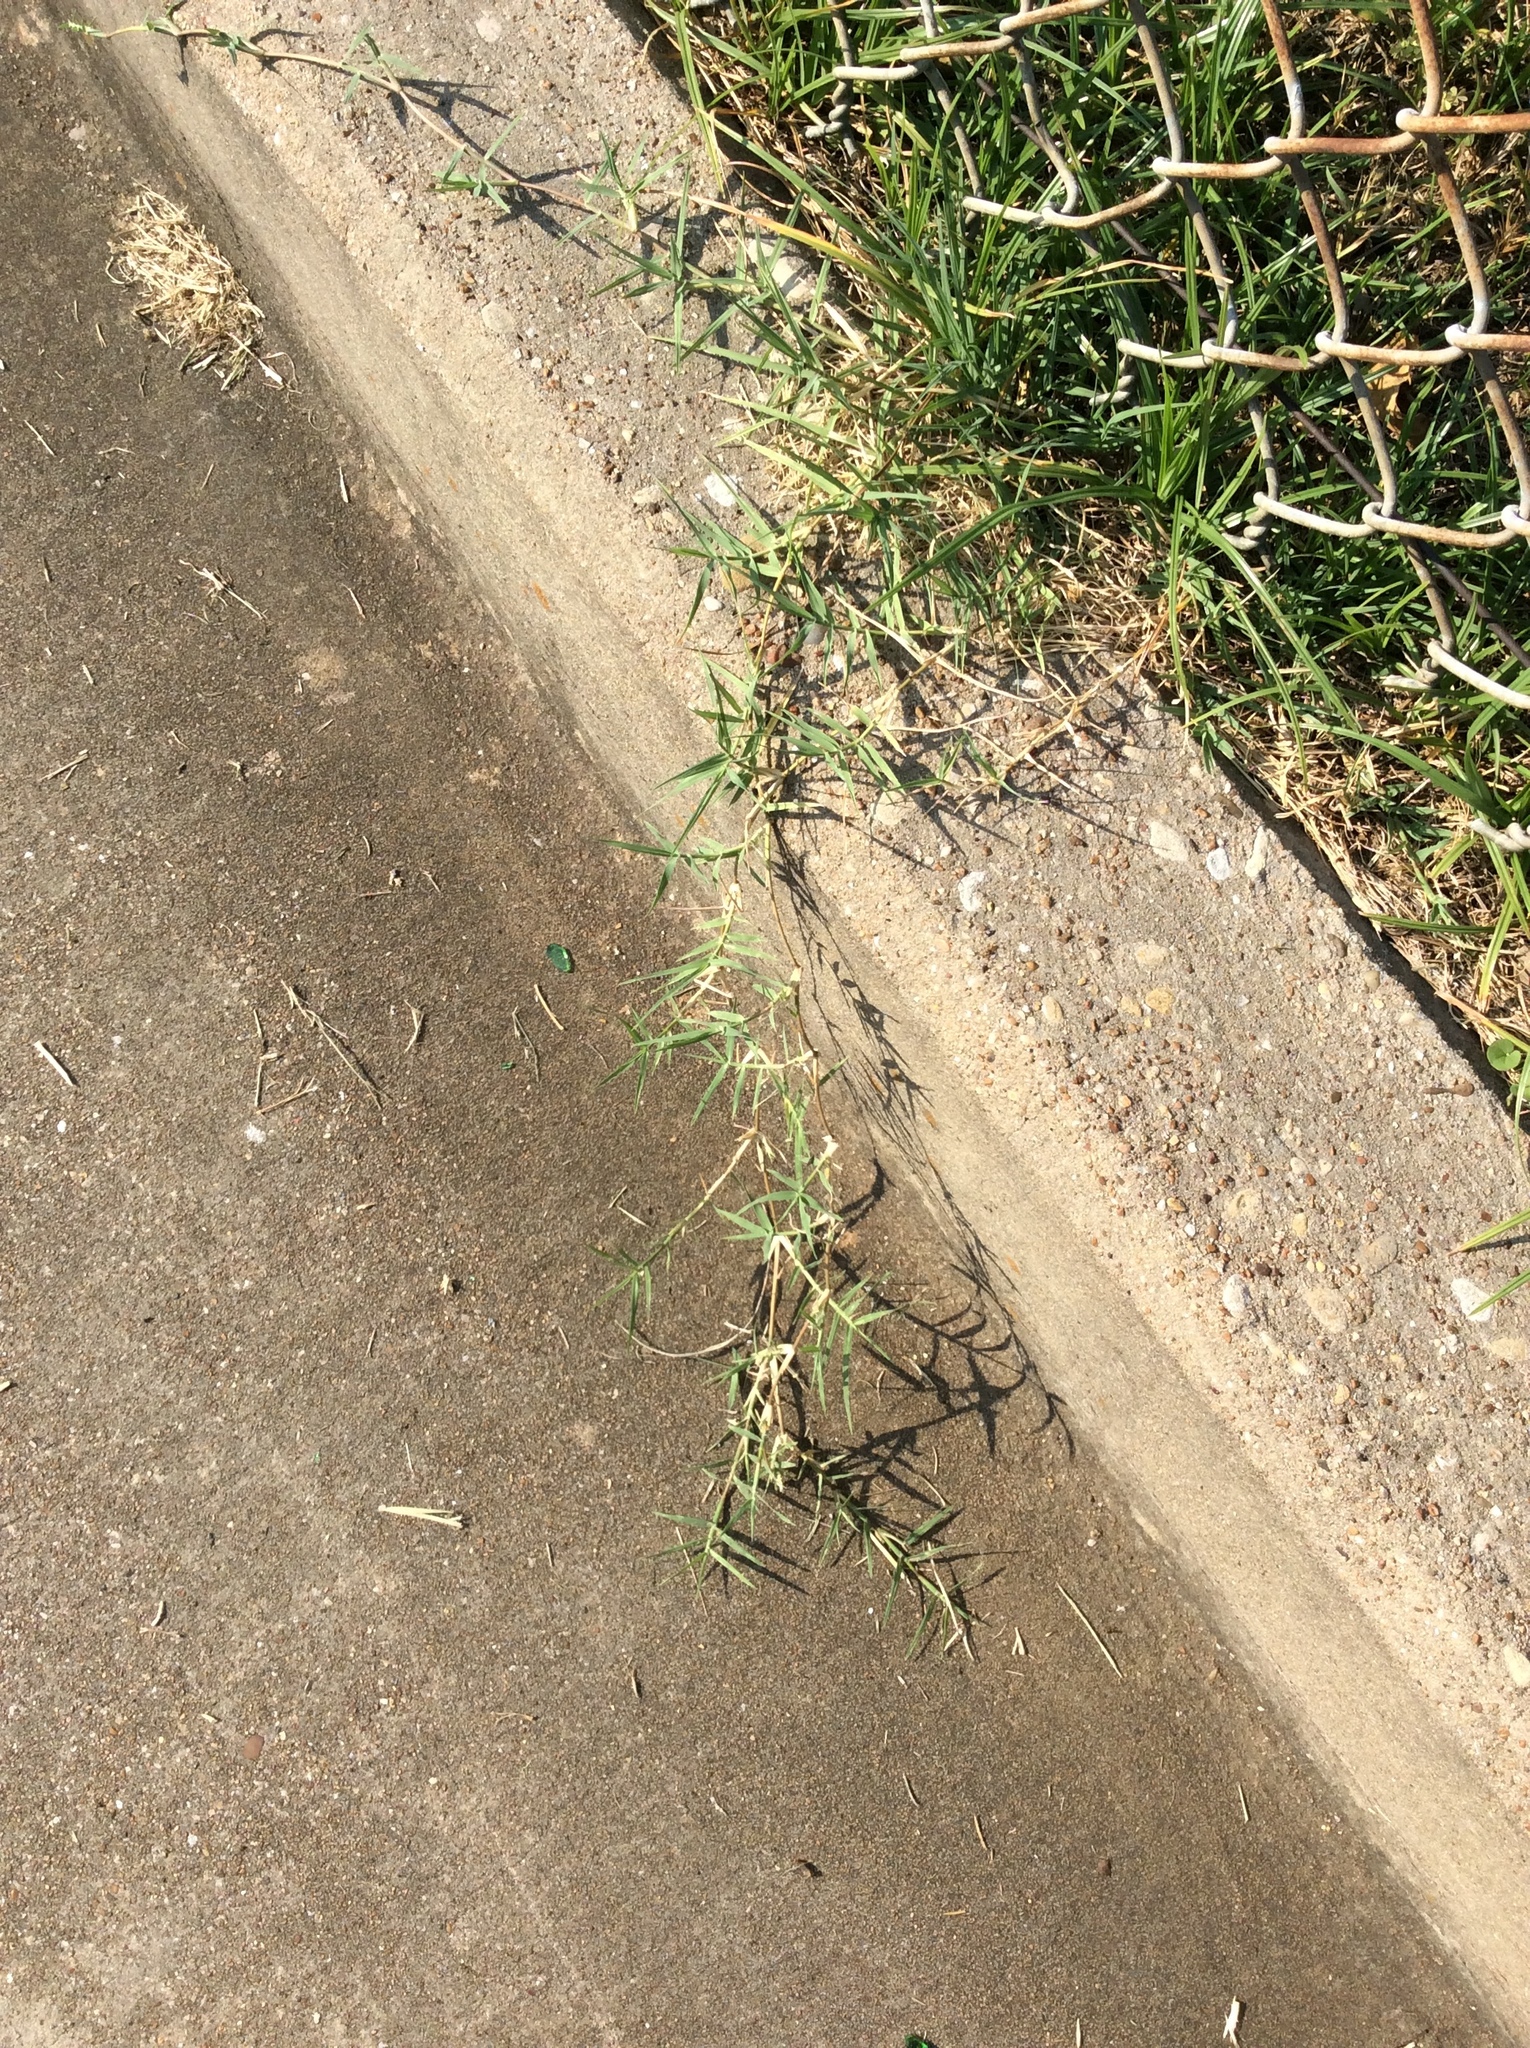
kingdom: Plantae
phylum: Tracheophyta
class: Liliopsida
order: Poales
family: Poaceae
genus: Cynodon
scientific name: Cynodon dactylon
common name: Bermuda grass
